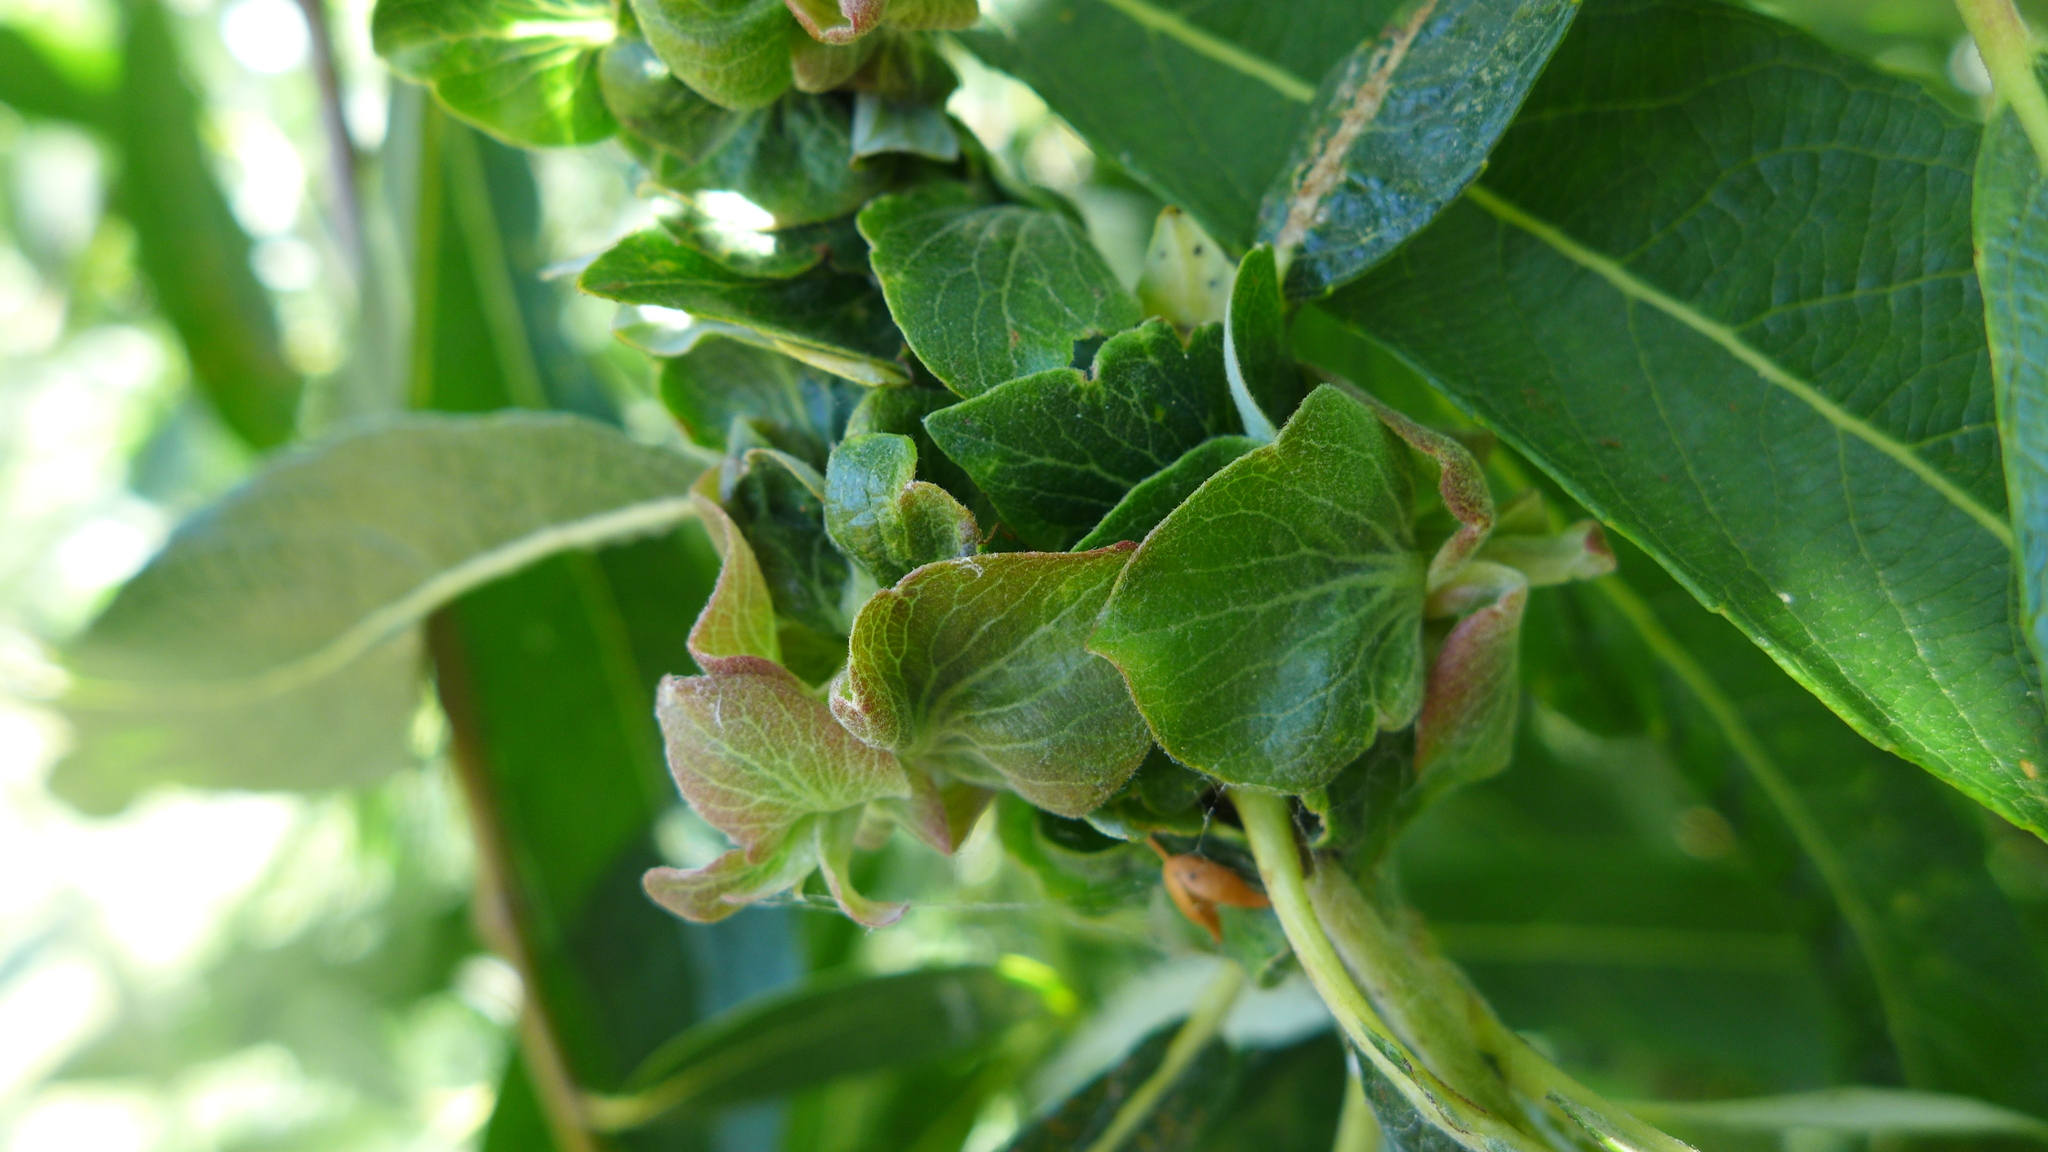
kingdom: Animalia
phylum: Arthropoda
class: Insecta
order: Diptera
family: Cecidomyiidae
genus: Rabdophaga
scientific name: Rabdophaga salicisbrassicoides
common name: Willow cabbagegall midge
